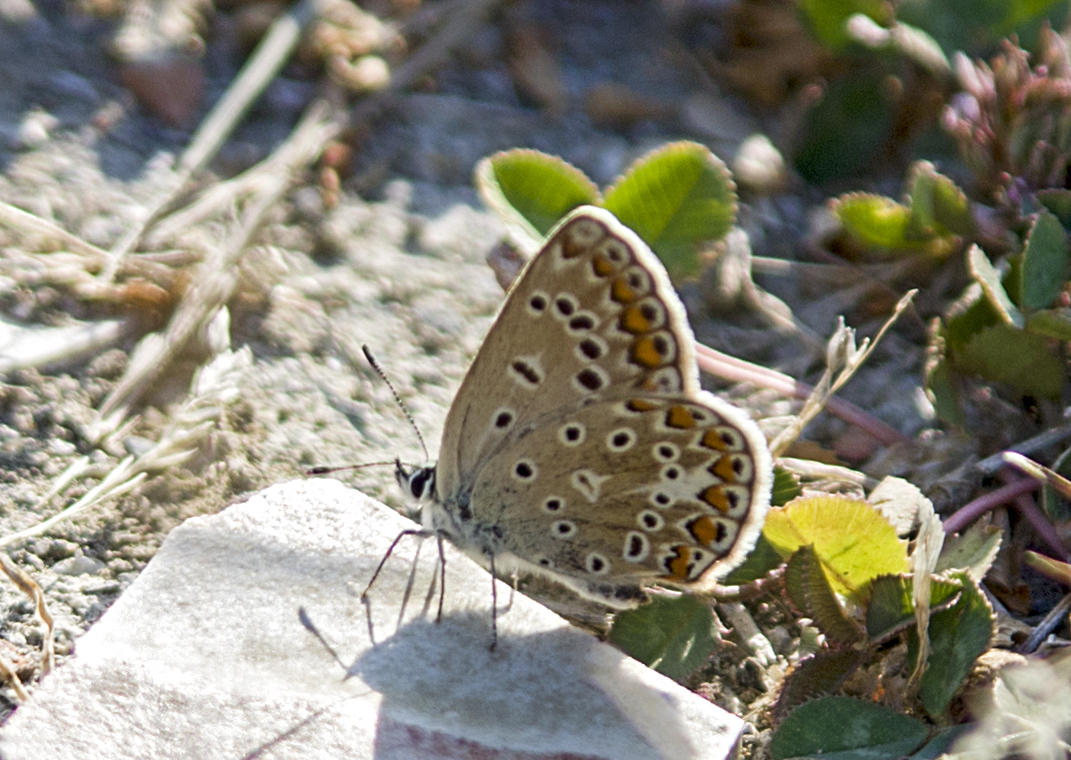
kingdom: Animalia
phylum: Arthropoda
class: Insecta
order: Lepidoptera
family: Lycaenidae
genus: Polyommatus
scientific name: Polyommatus icarus
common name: Common blue
